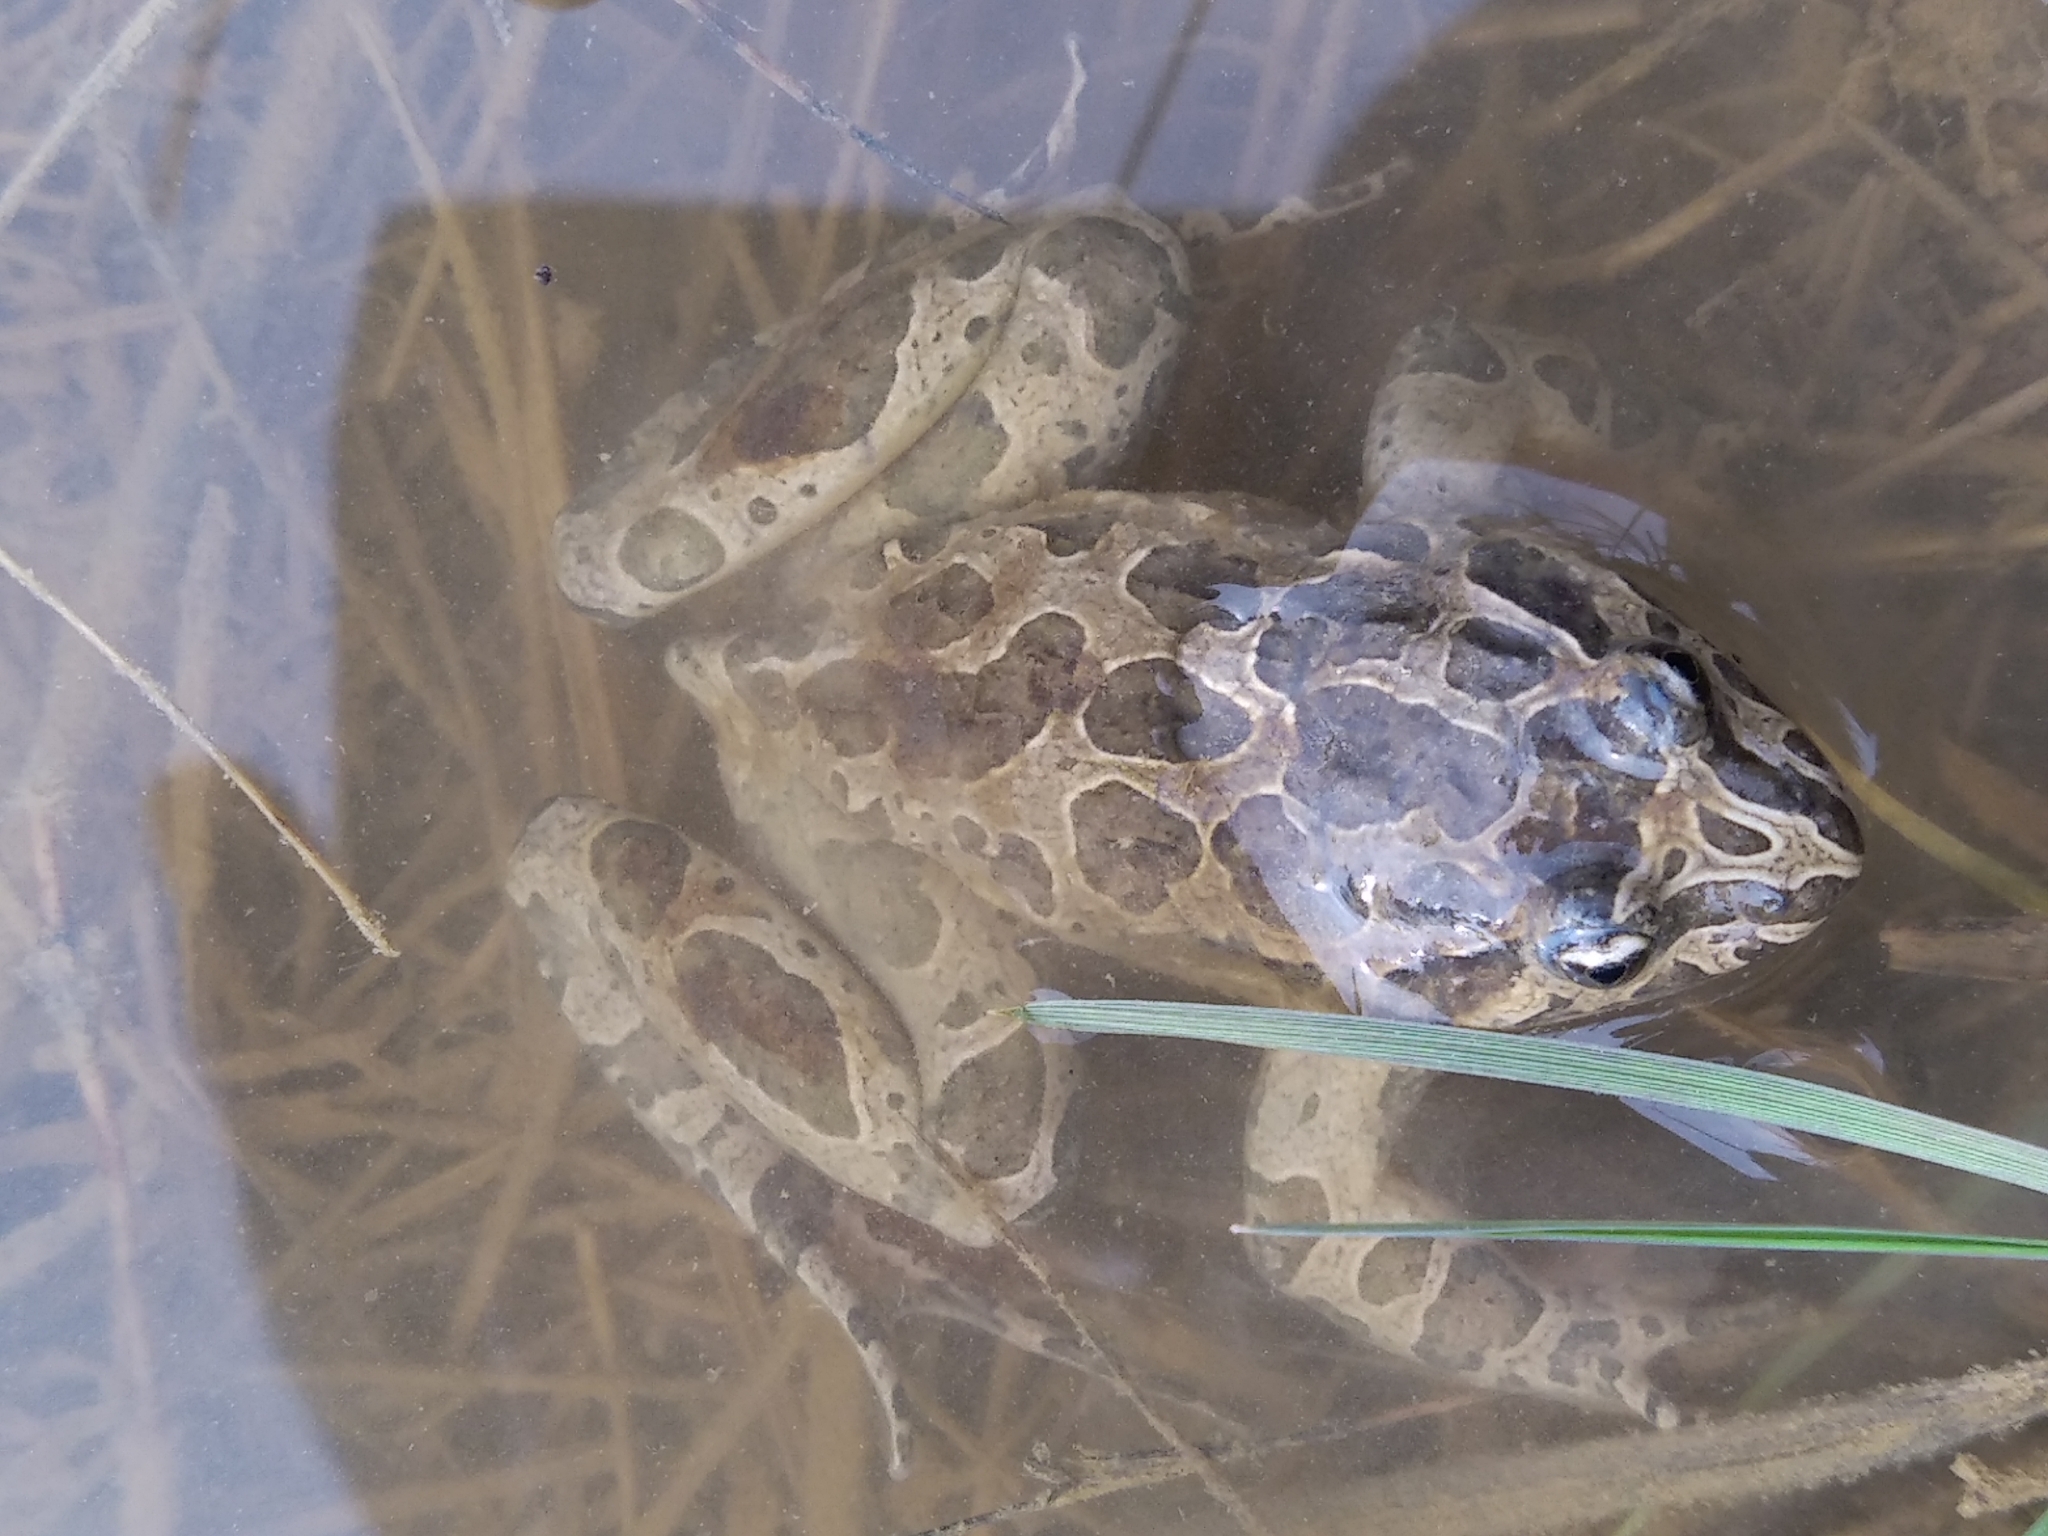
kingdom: Animalia
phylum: Chordata
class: Amphibia
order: Anura
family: Alytidae
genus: Discoglossus
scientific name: Discoglossus pictus
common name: Painted frog
